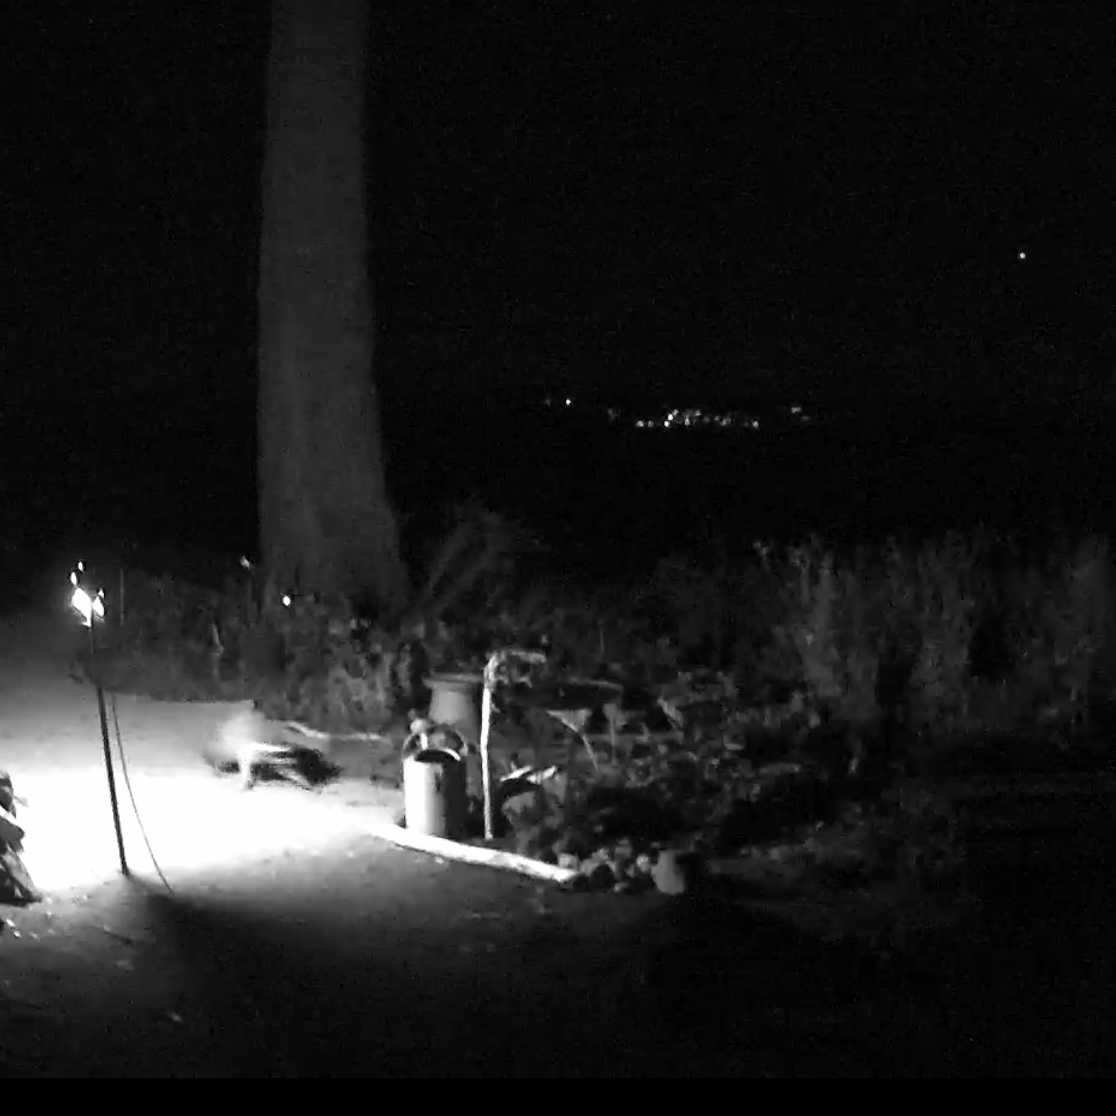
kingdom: Animalia
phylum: Chordata
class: Mammalia
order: Carnivora
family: Procyonidae
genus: Procyon
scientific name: Procyon lotor
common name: Raccoon
